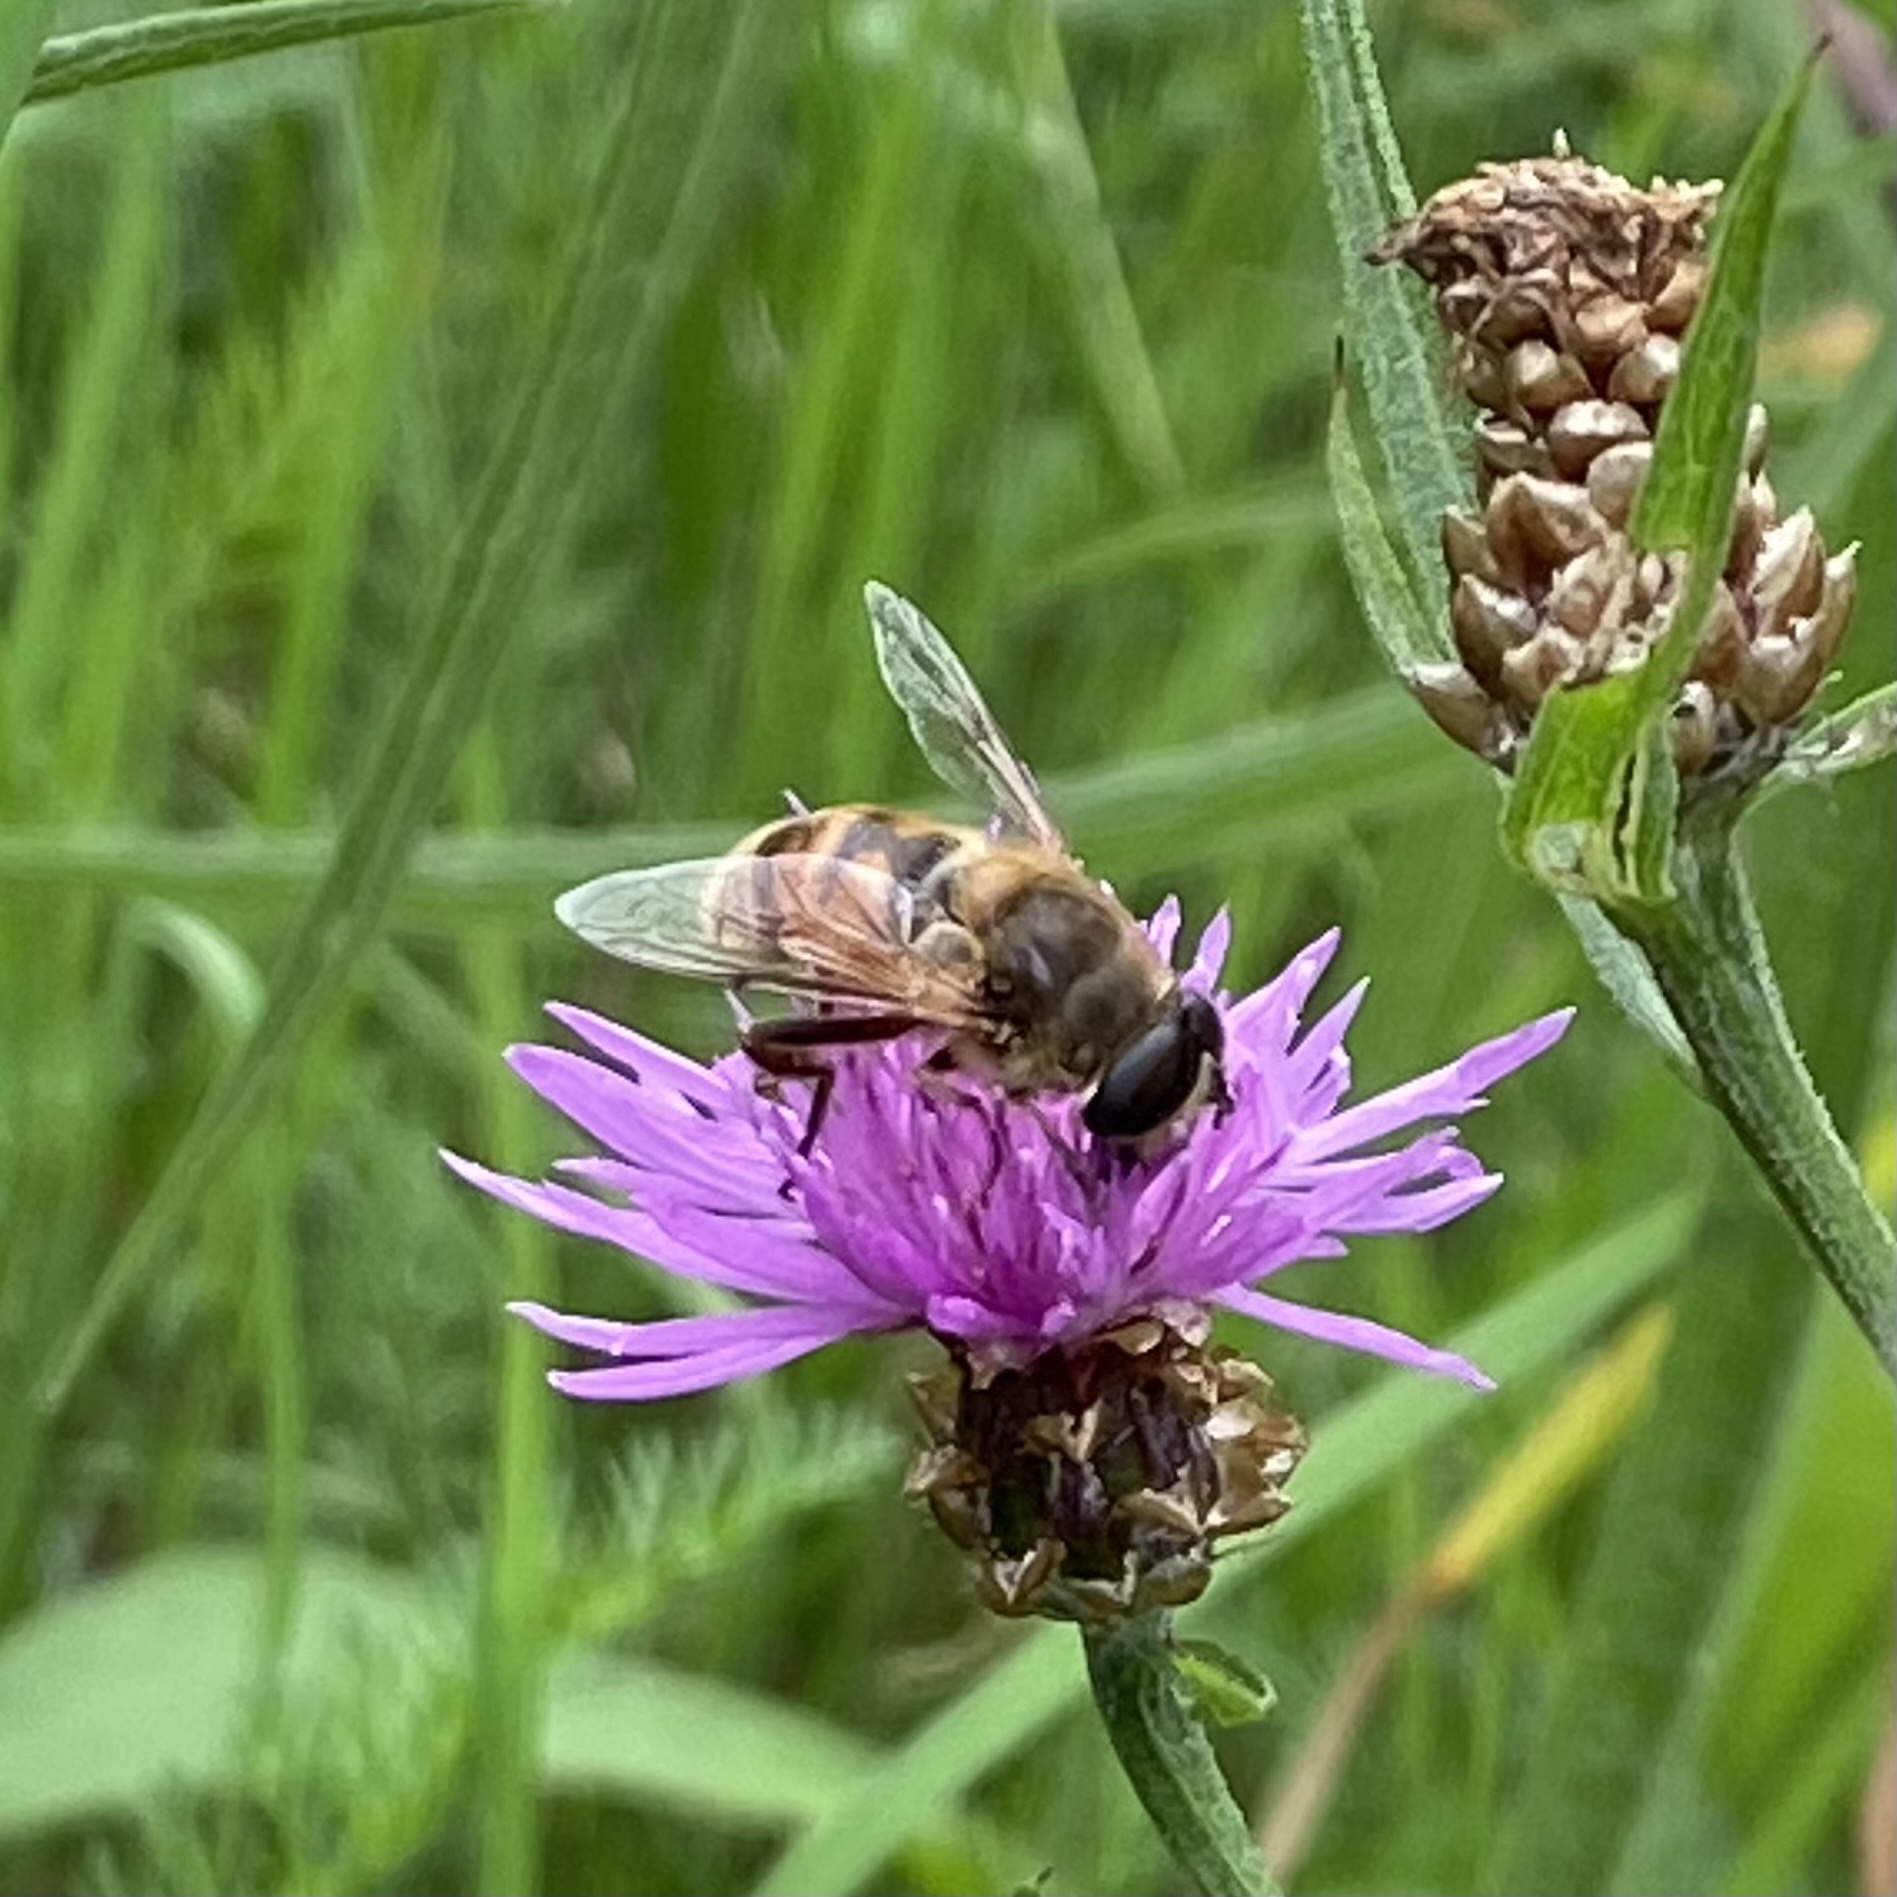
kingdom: Animalia
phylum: Arthropoda
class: Insecta
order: Diptera
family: Syrphidae
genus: Eristalis
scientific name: Eristalis tenax
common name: Drone fly
